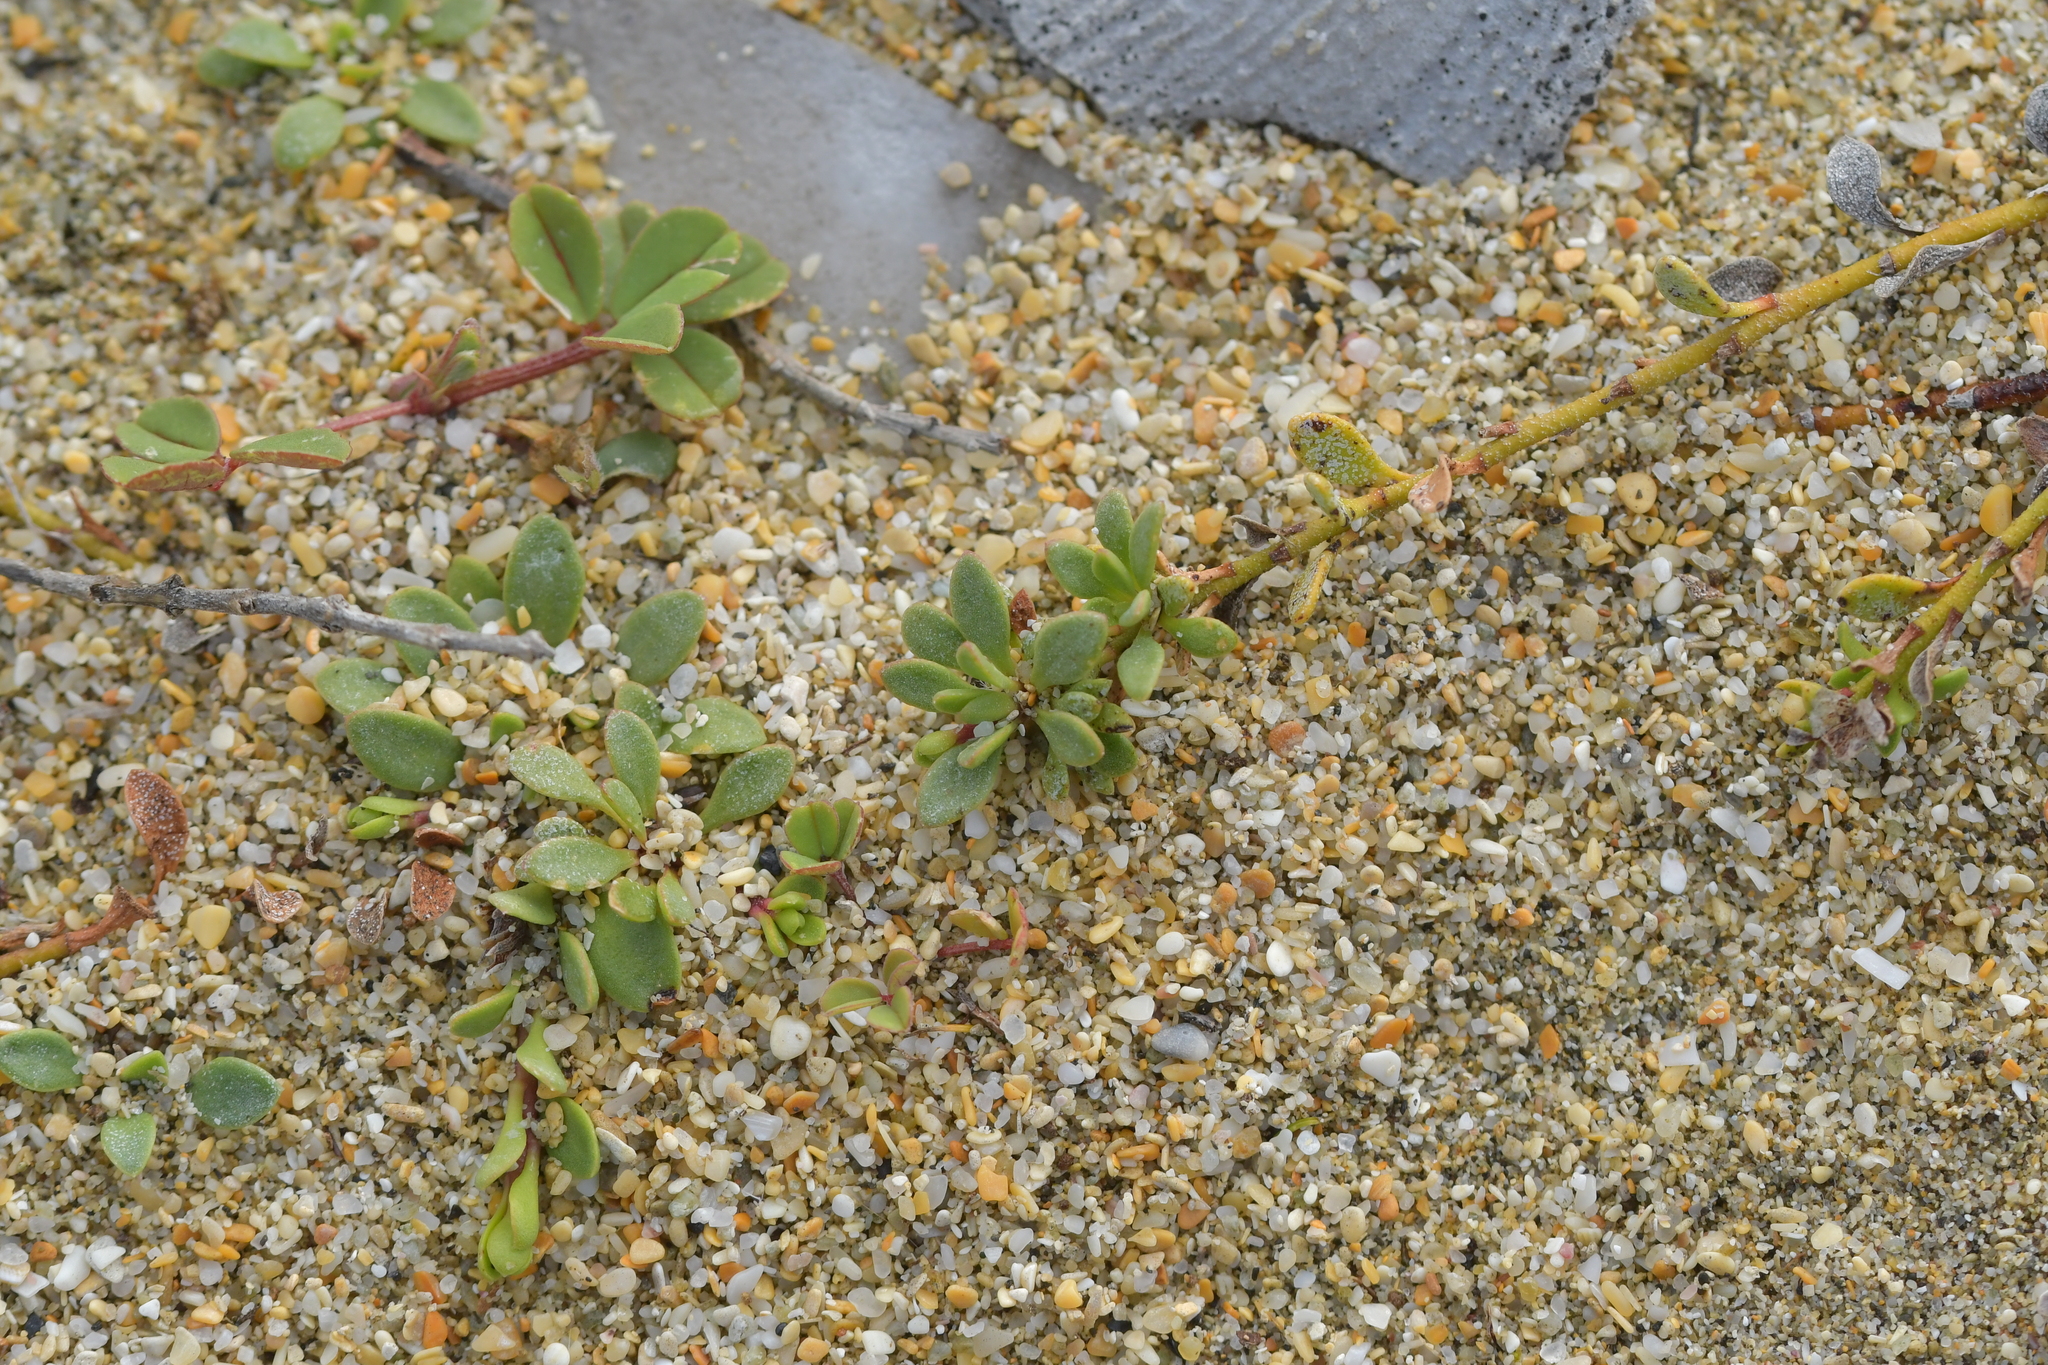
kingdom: Plantae
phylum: Tracheophyta
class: Magnoliopsida
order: Ericales
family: Primulaceae
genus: Samolus
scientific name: Samolus repens
